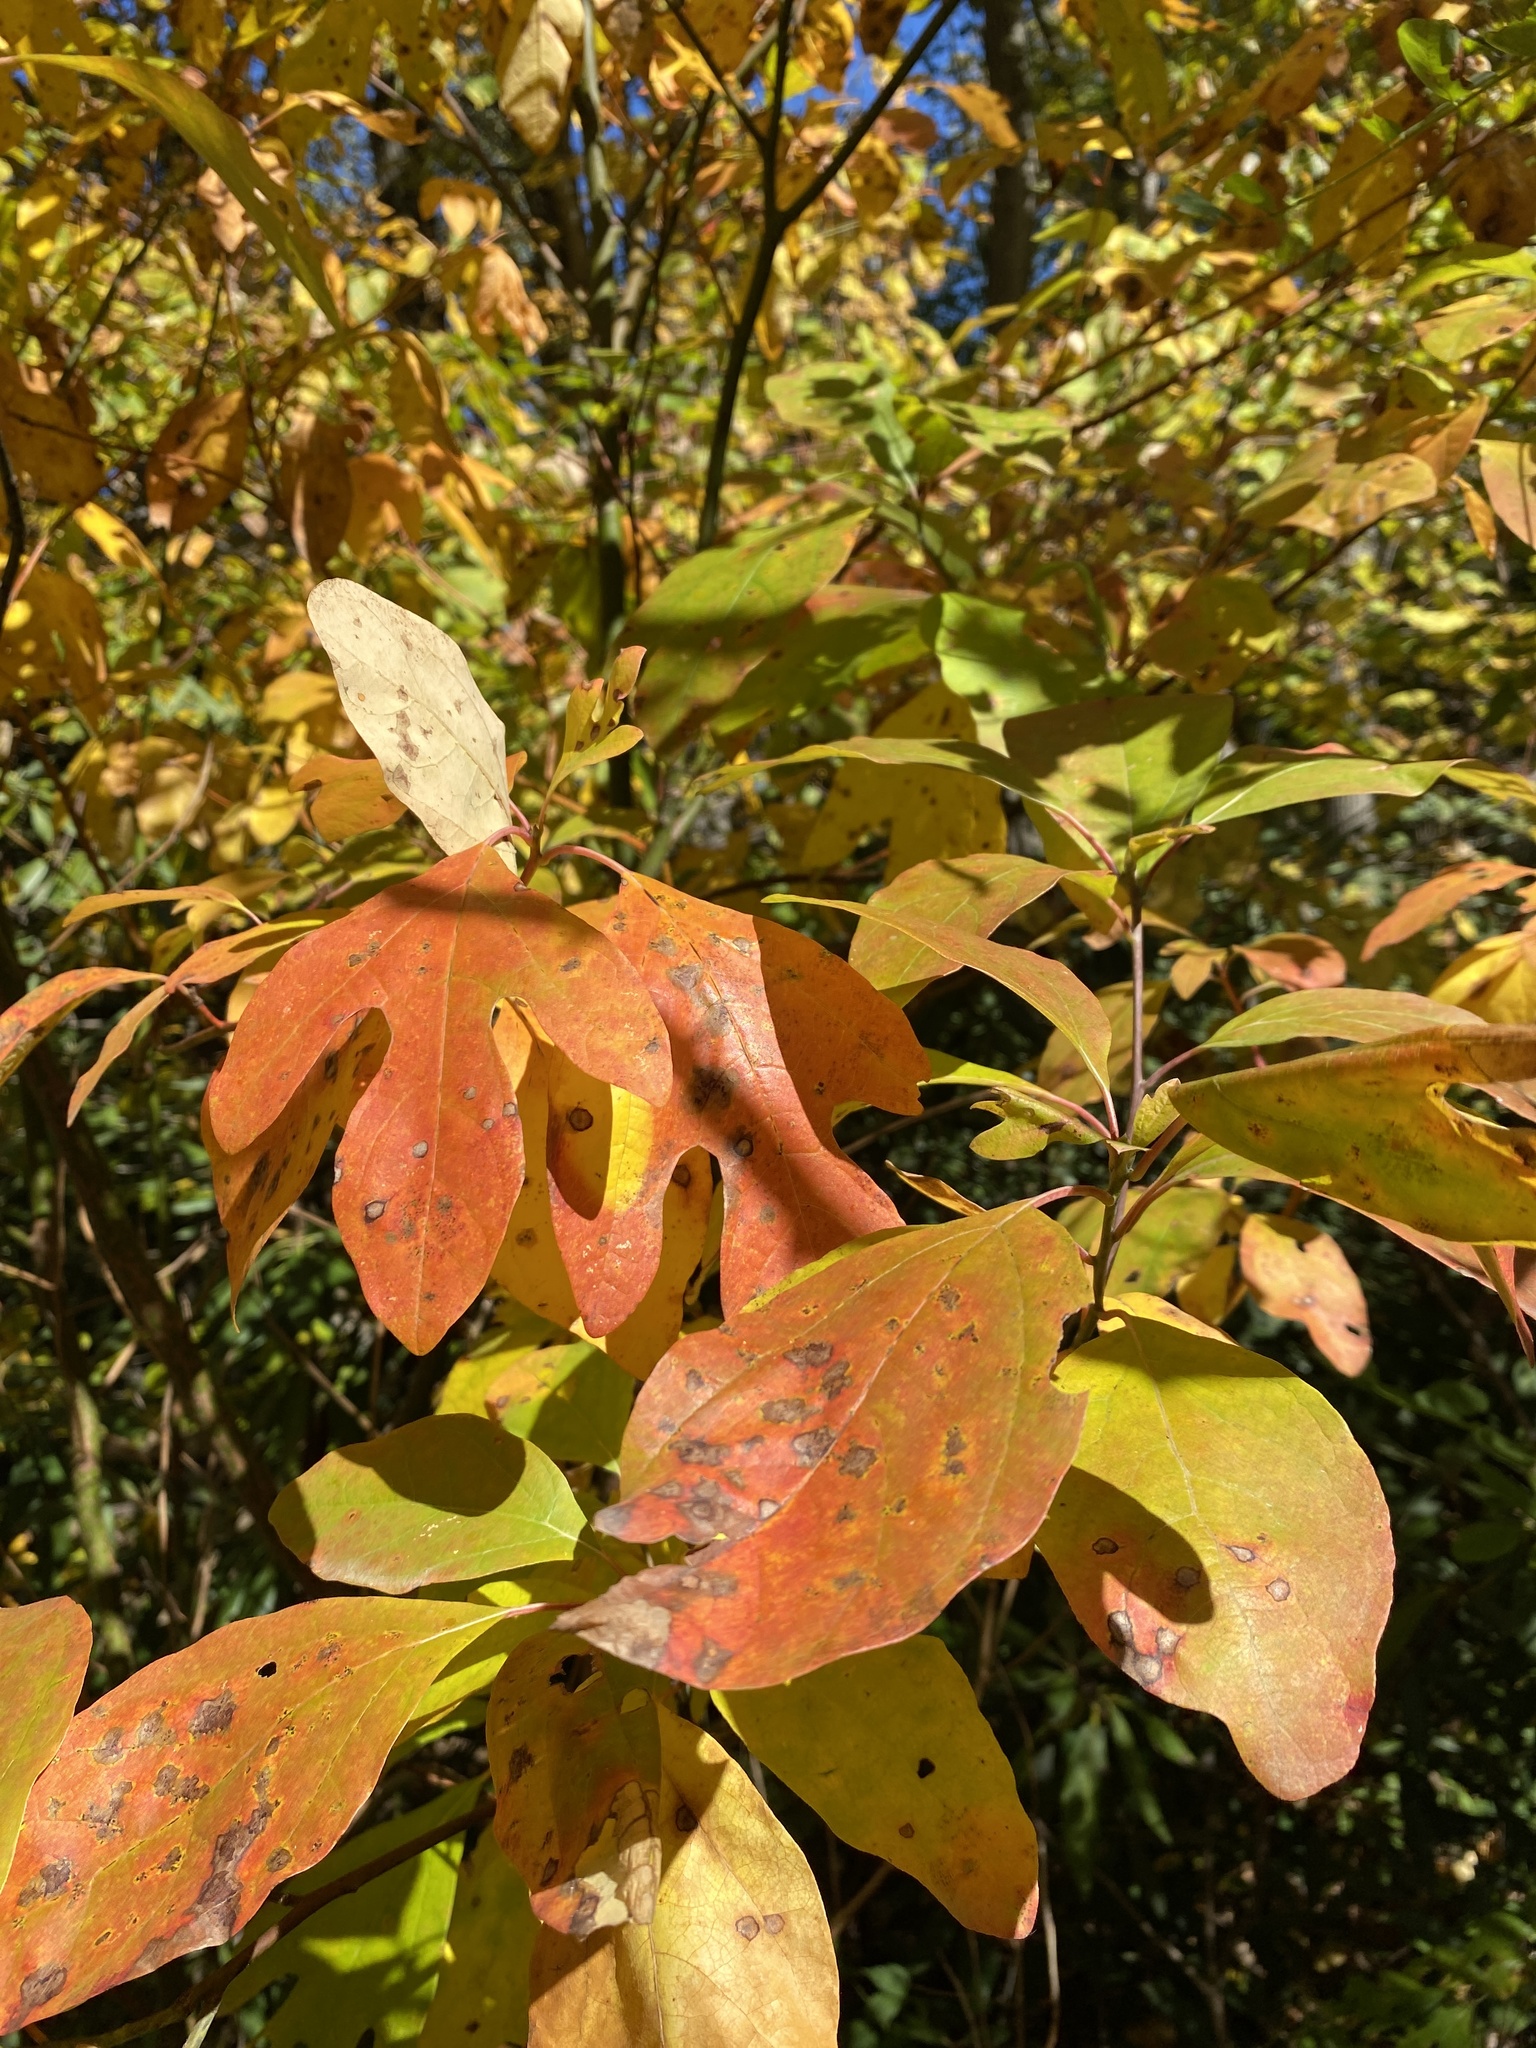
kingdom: Plantae
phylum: Tracheophyta
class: Magnoliopsida
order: Laurales
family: Lauraceae
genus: Sassafras
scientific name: Sassafras albidum
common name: Sassafras
